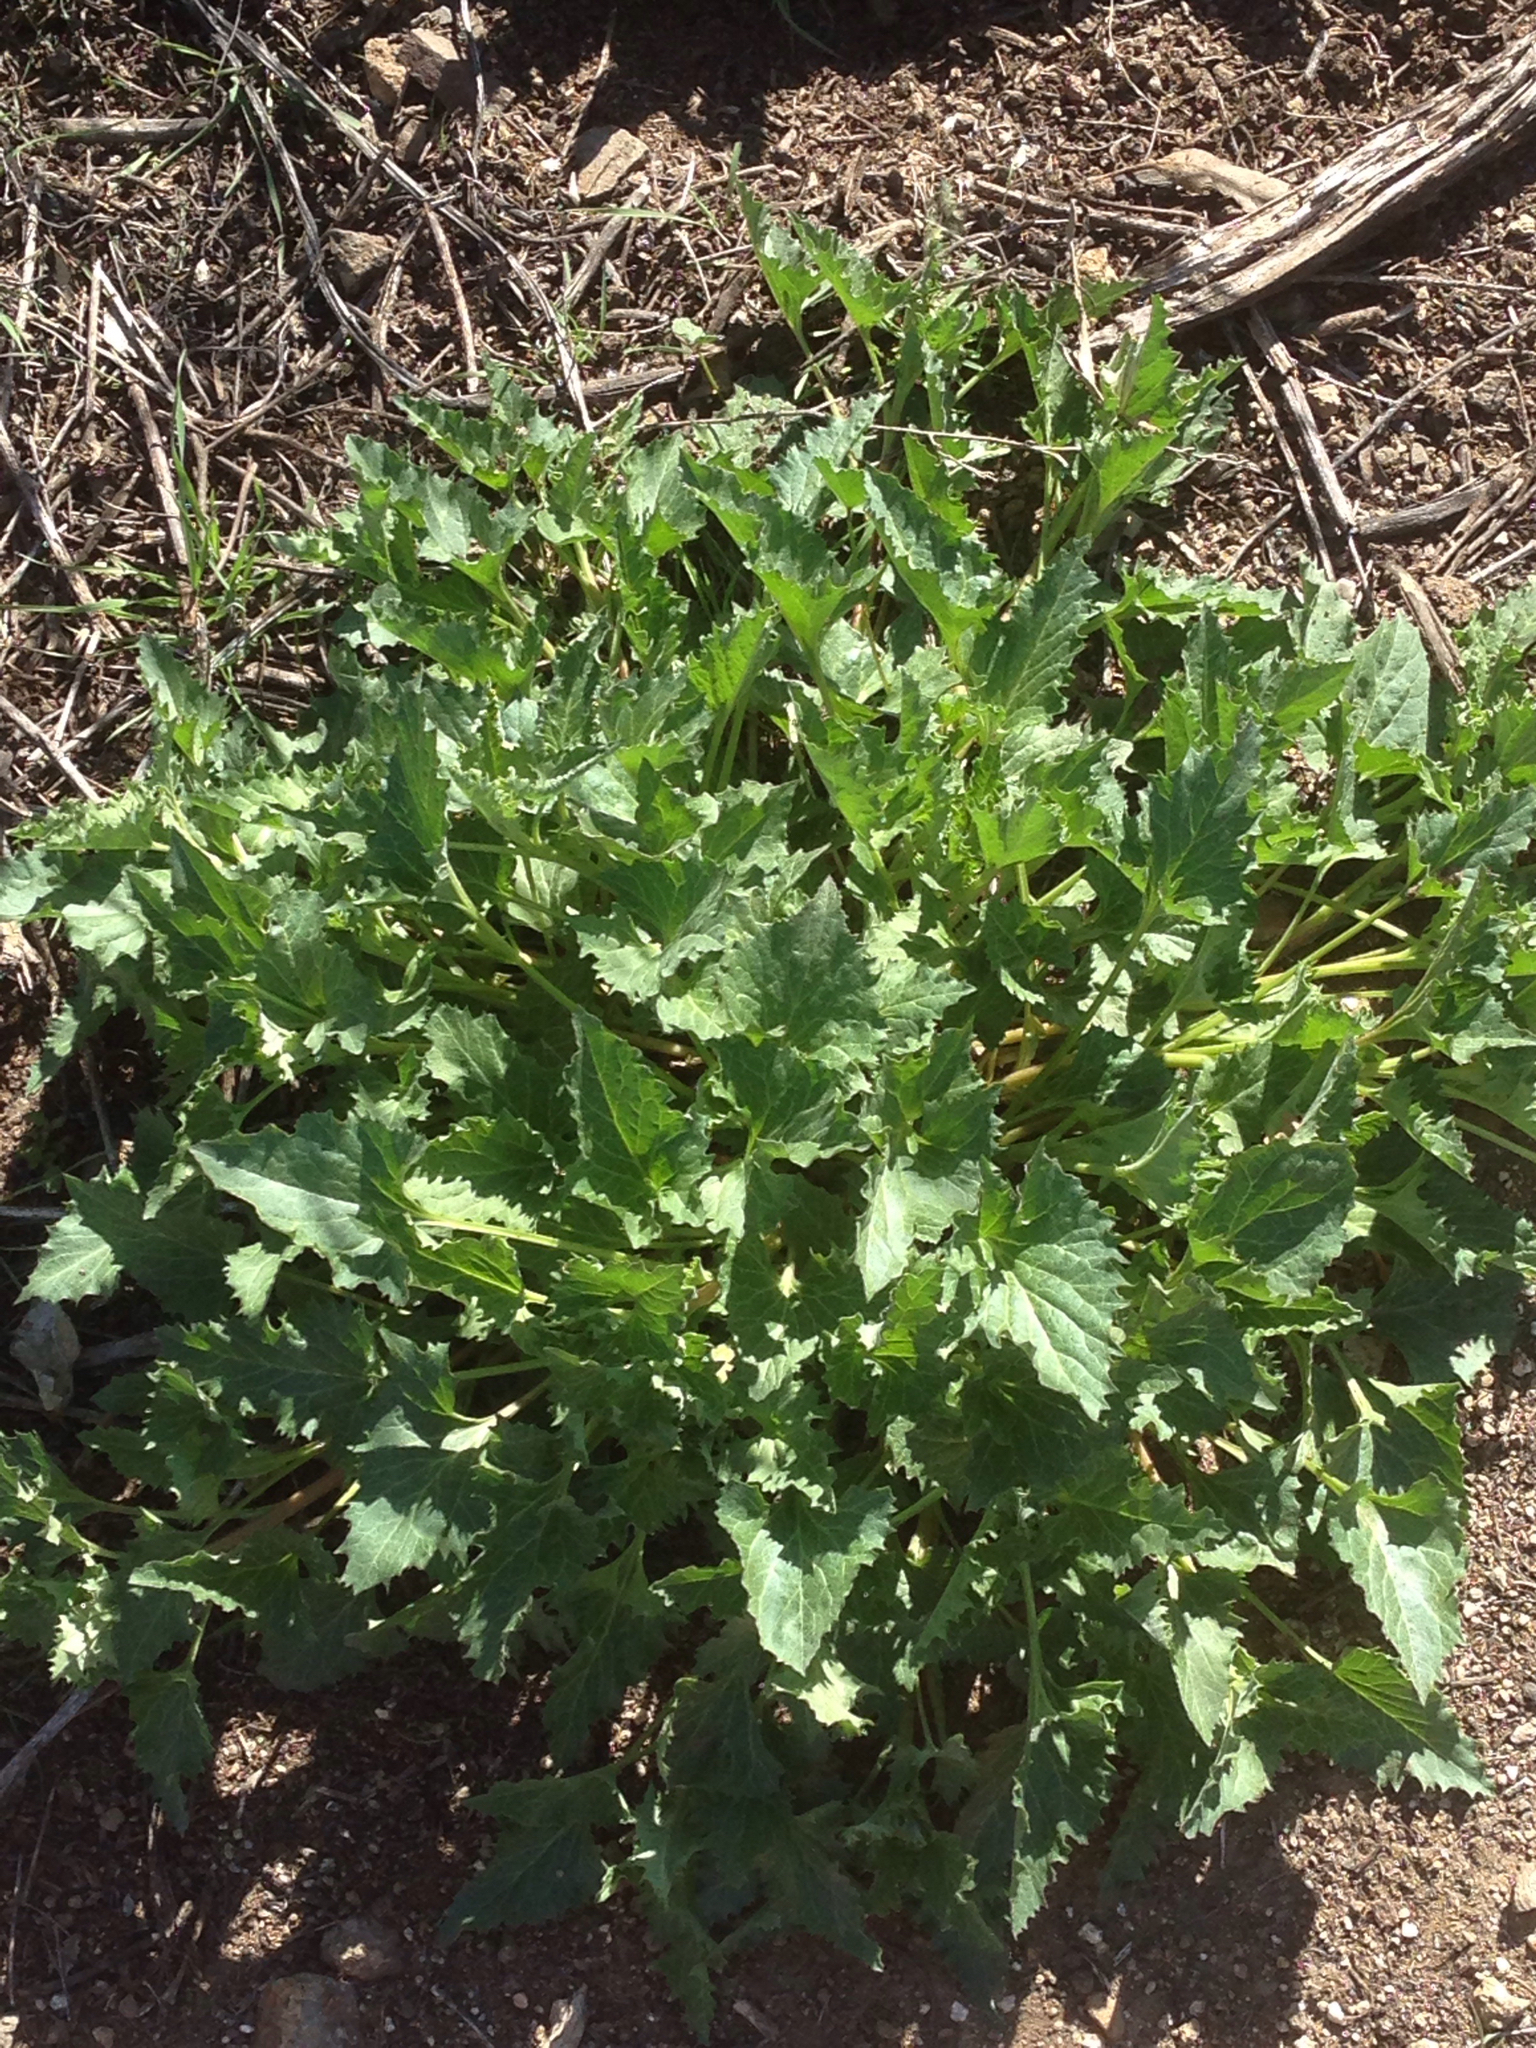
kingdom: Plantae
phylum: Tracheophyta
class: Magnoliopsida
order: Caryophyllales
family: Amaranthaceae
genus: Blitum
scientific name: Blitum californicum
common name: California goosefoot
